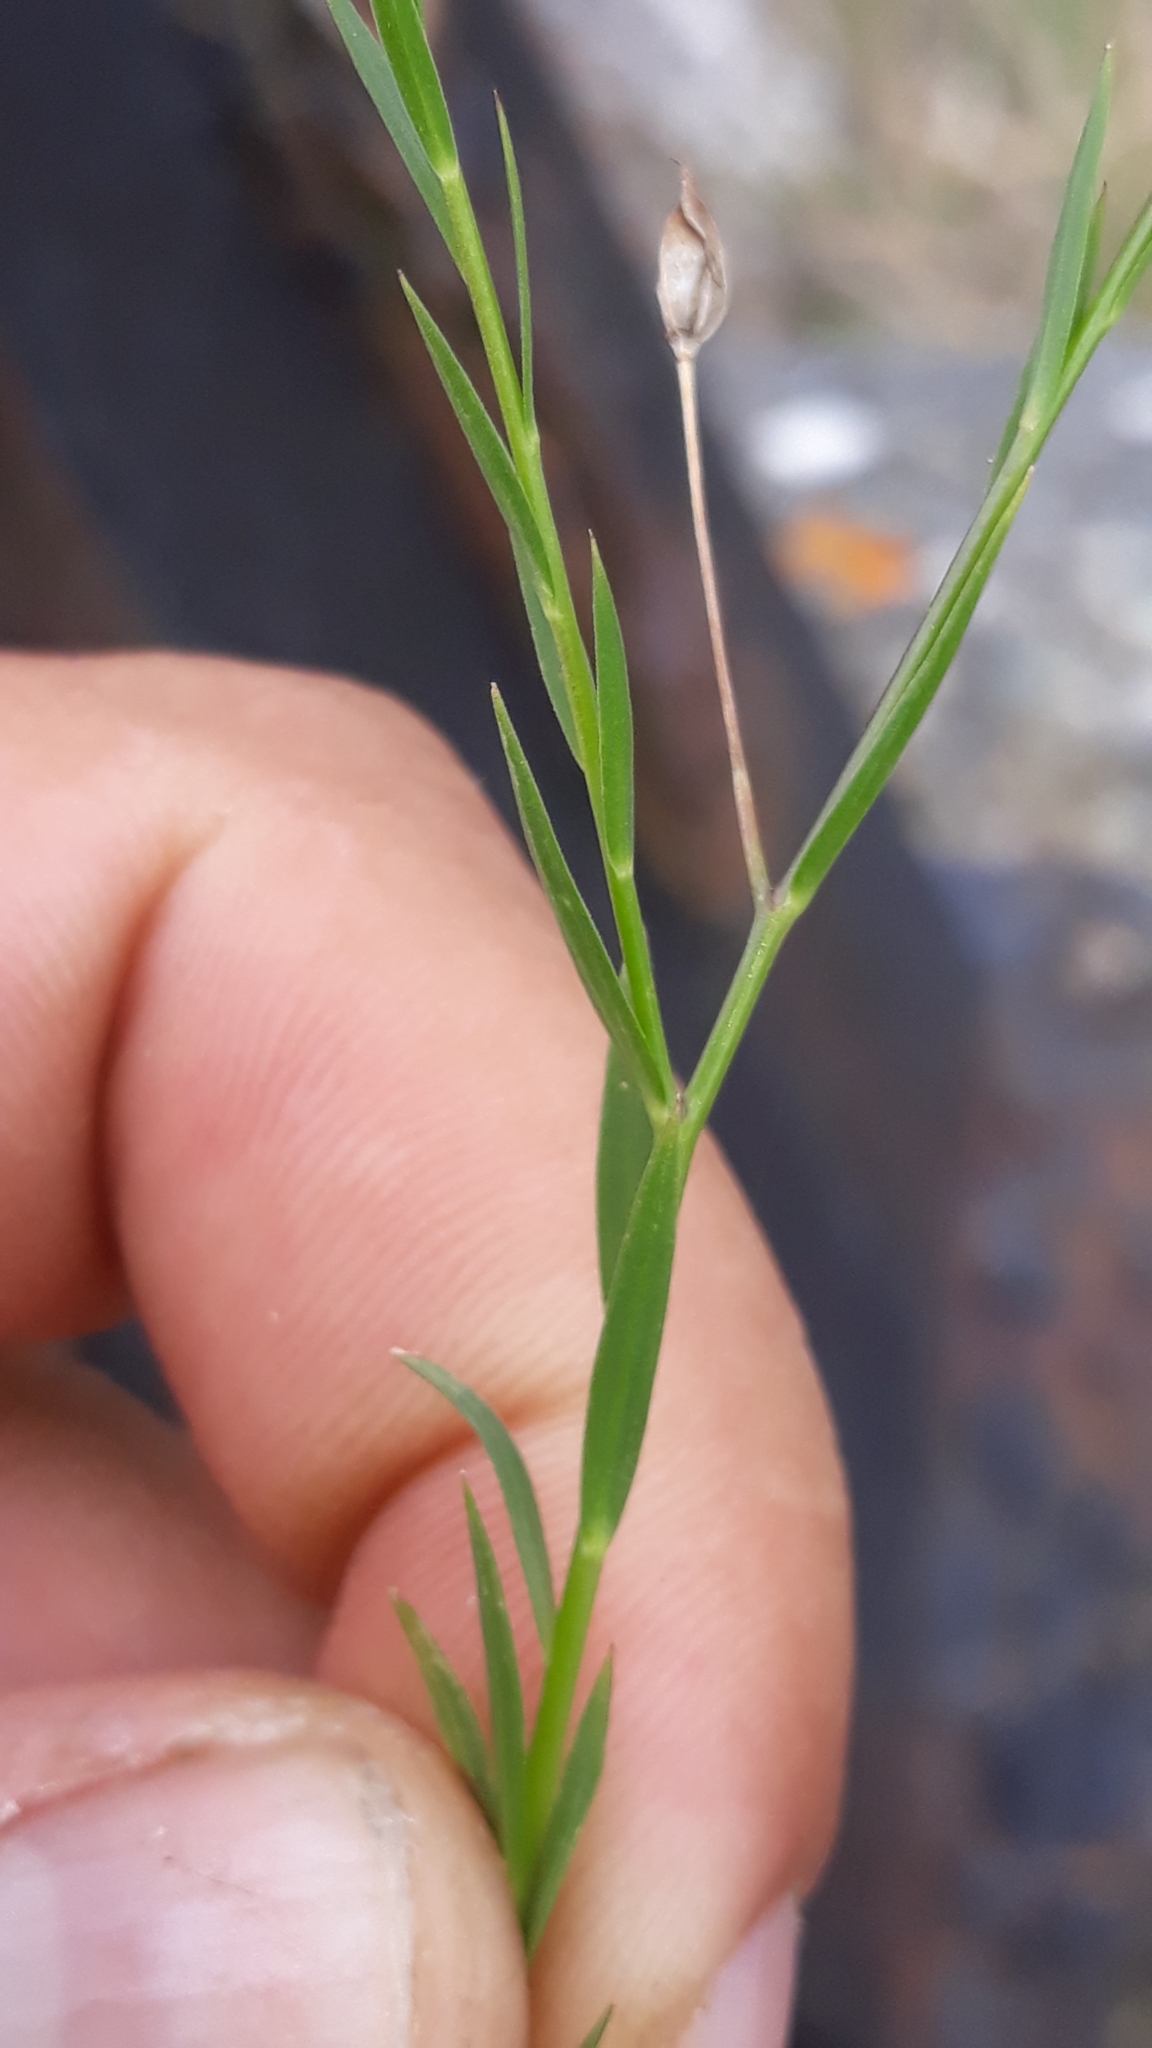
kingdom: Plantae
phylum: Tracheophyta
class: Magnoliopsida
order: Malpighiales
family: Linaceae
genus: Linum
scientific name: Linum bienne
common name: Pale flax
